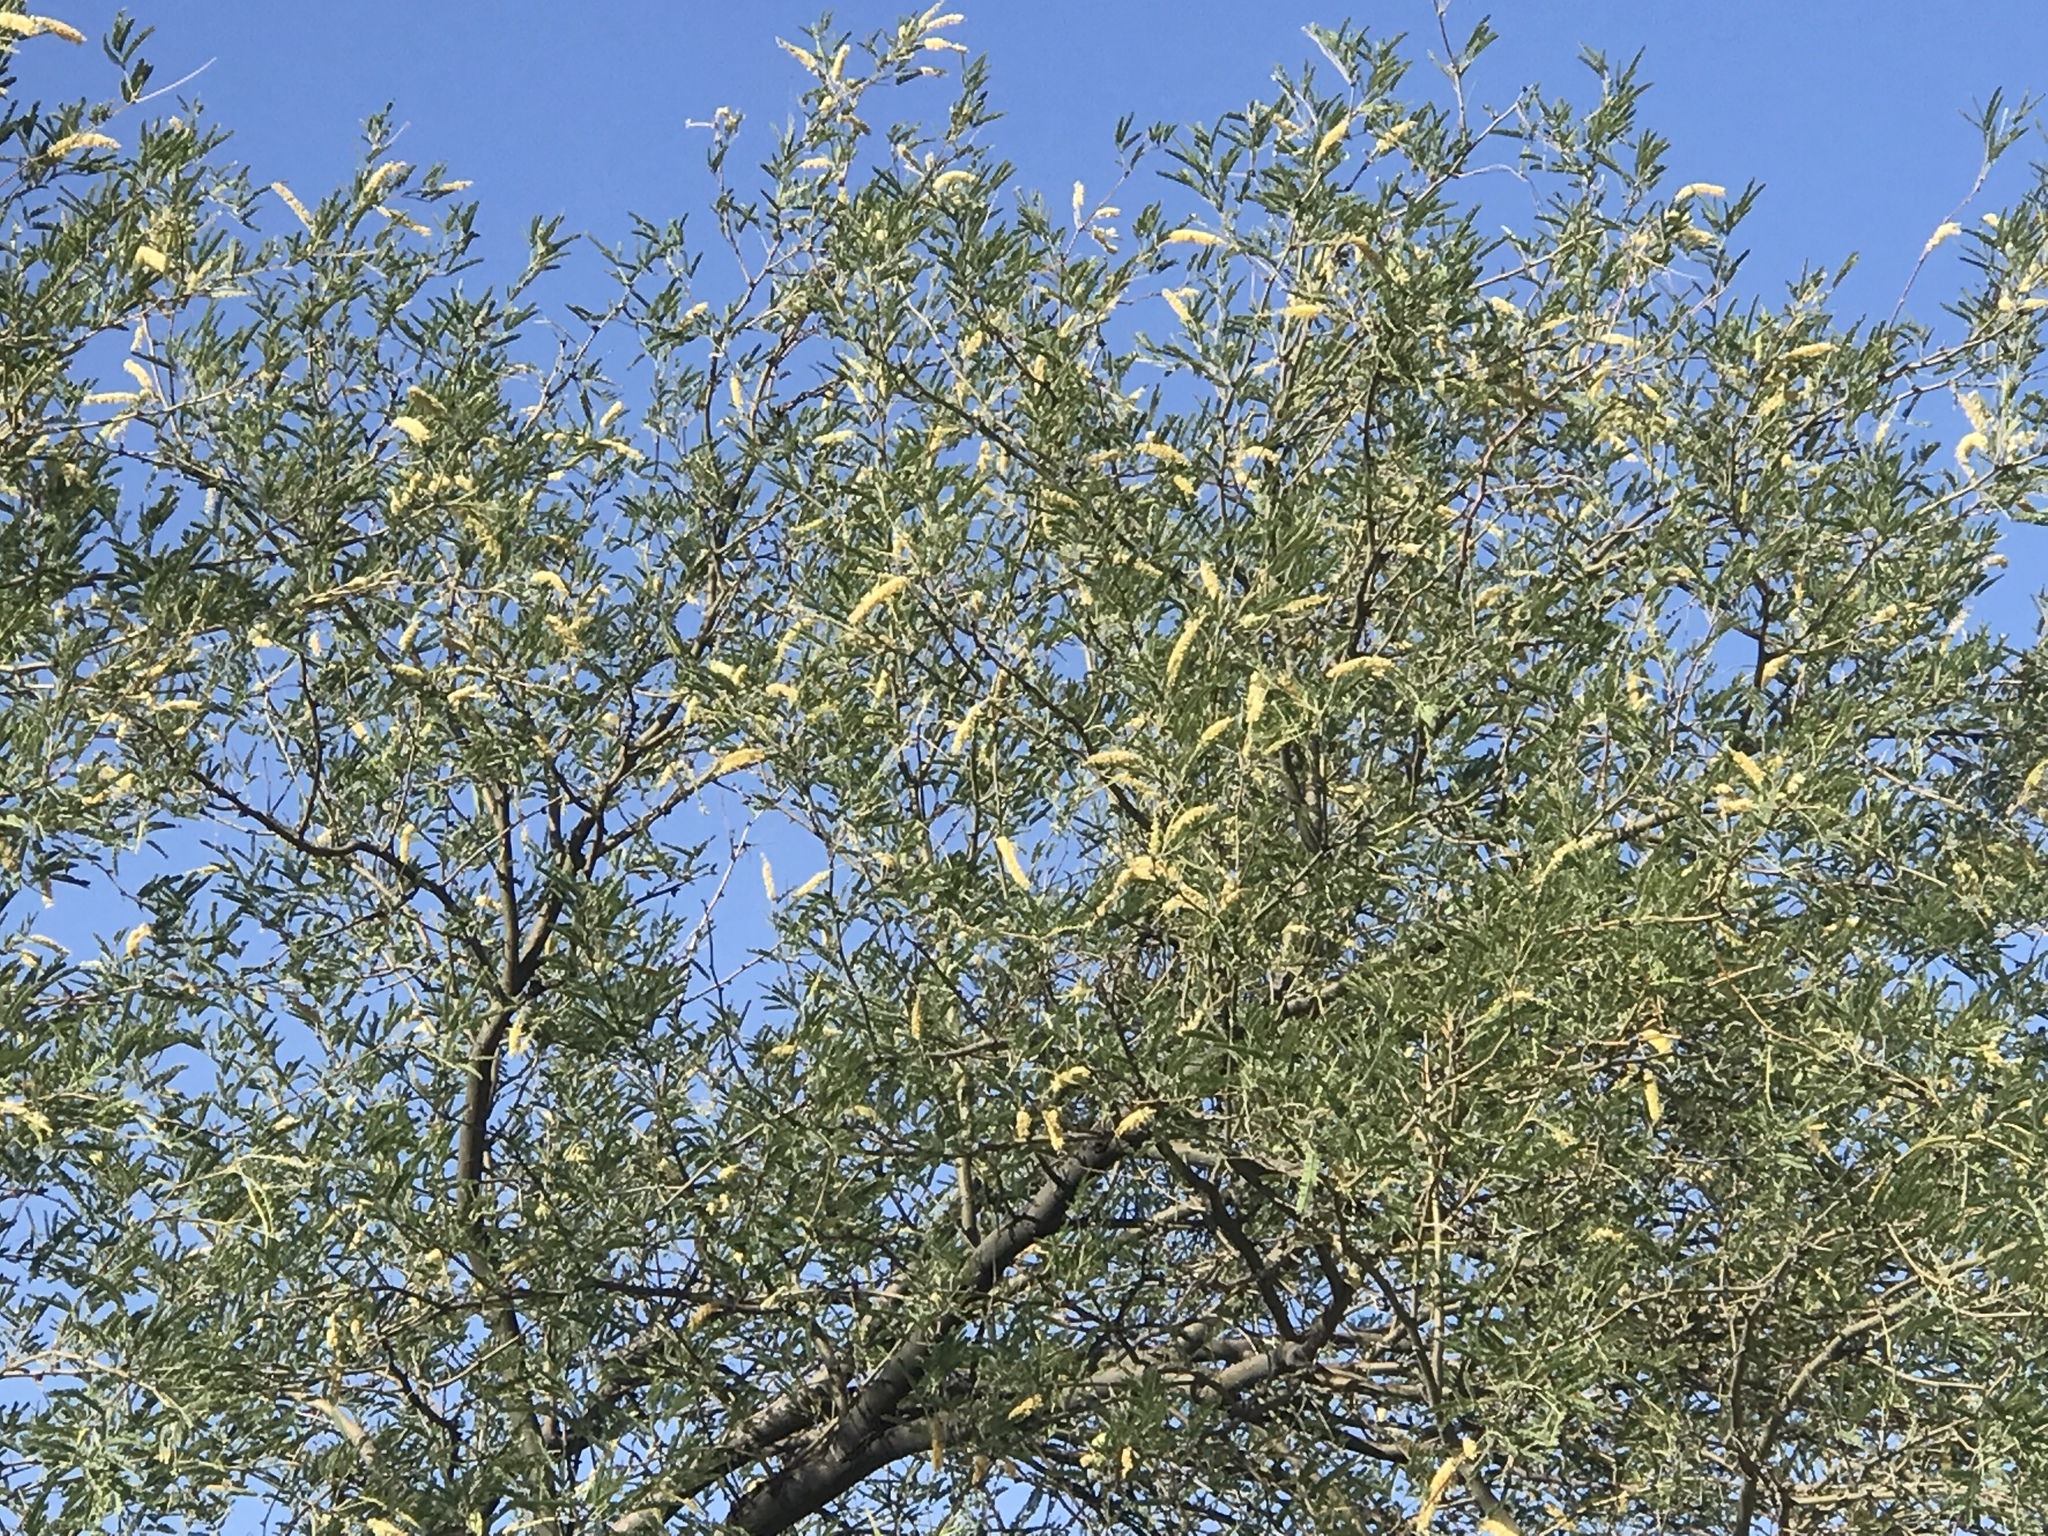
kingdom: Plantae
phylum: Tracheophyta
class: Magnoliopsida
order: Fabales
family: Fabaceae
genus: Prosopis
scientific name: Prosopis velutina
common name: Velvet mesquite
